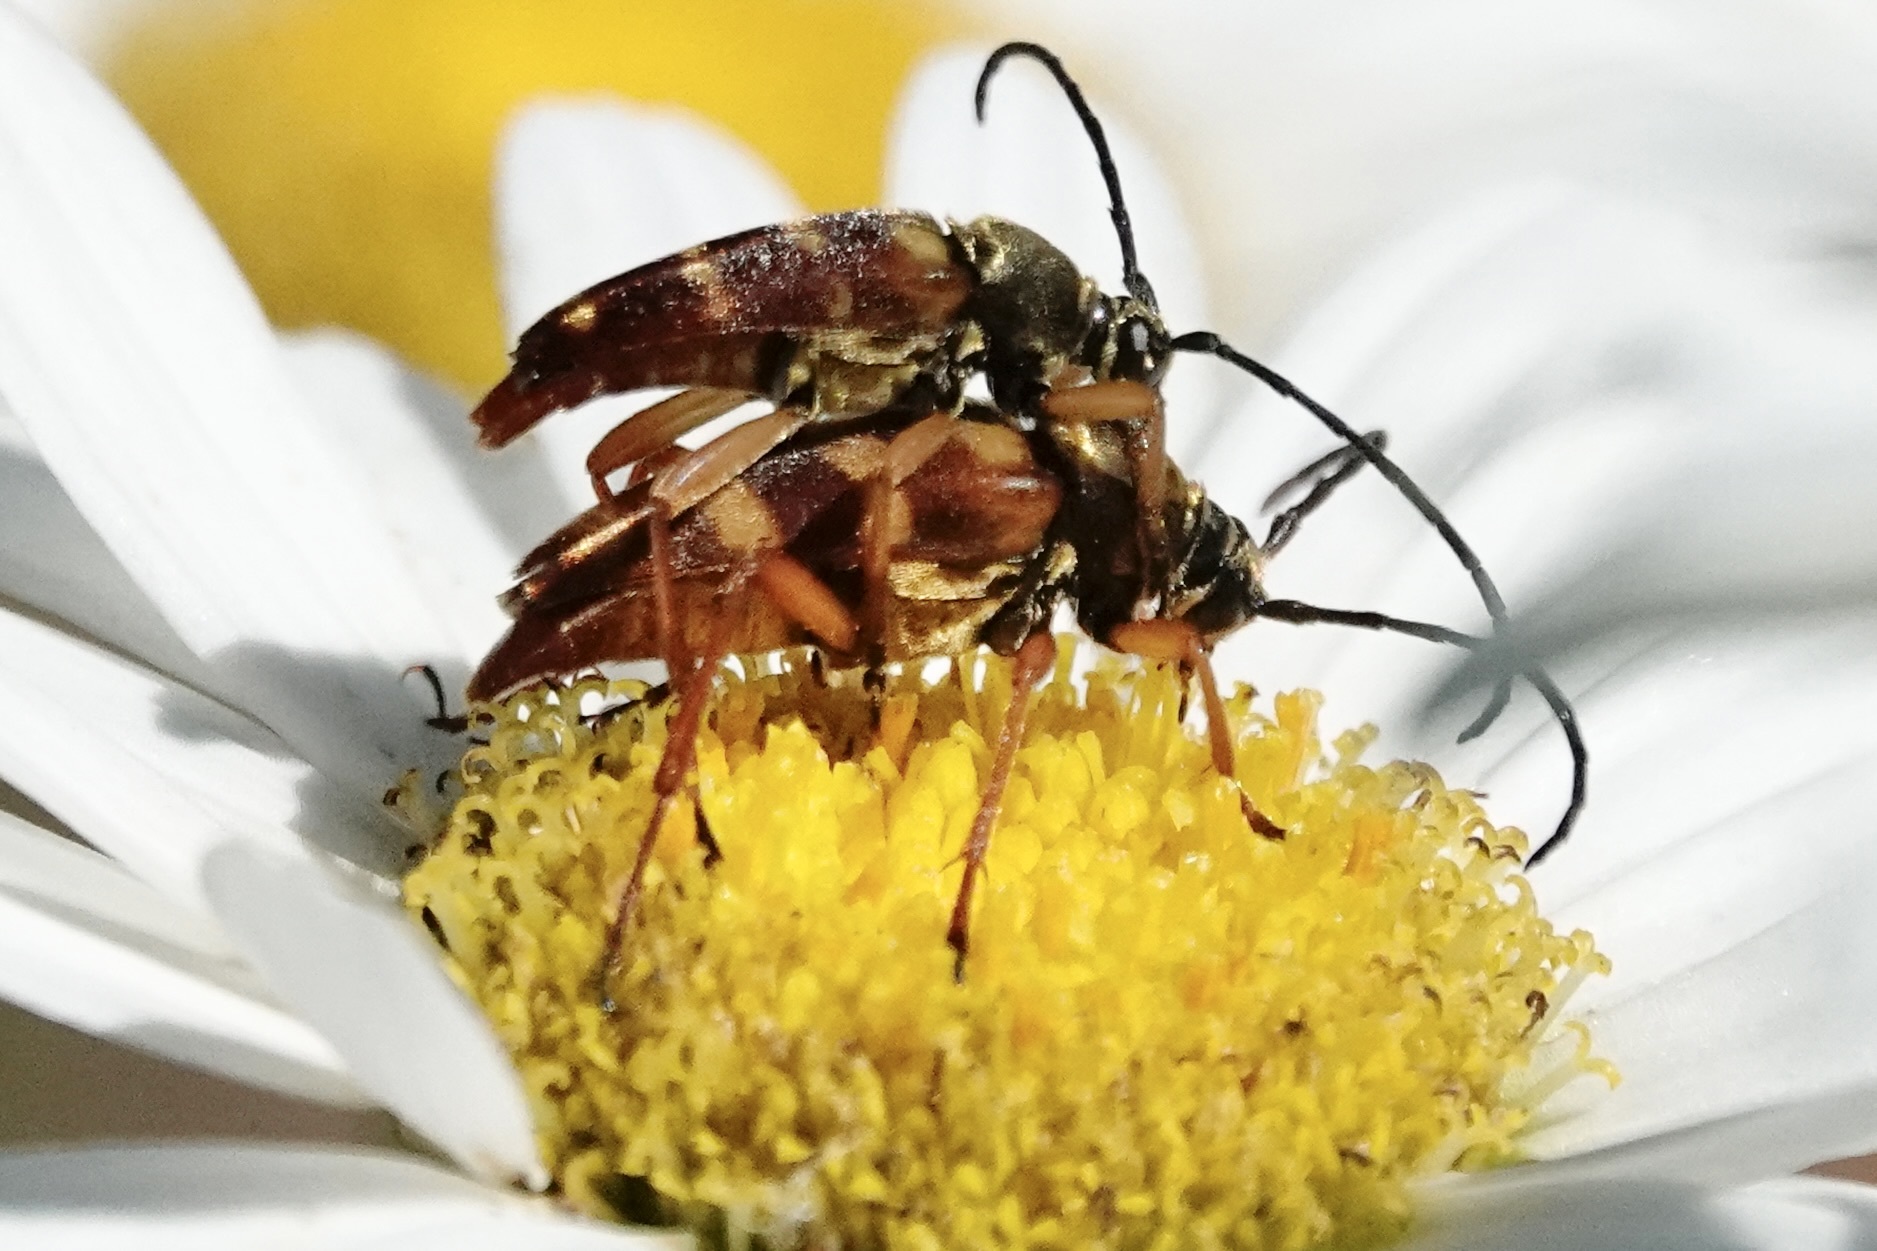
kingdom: Animalia
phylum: Arthropoda
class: Insecta
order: Coleoptera
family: Cerambycidae
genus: Typocerus
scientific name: Typocerus velutinus
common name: Banded longhorn beetle
